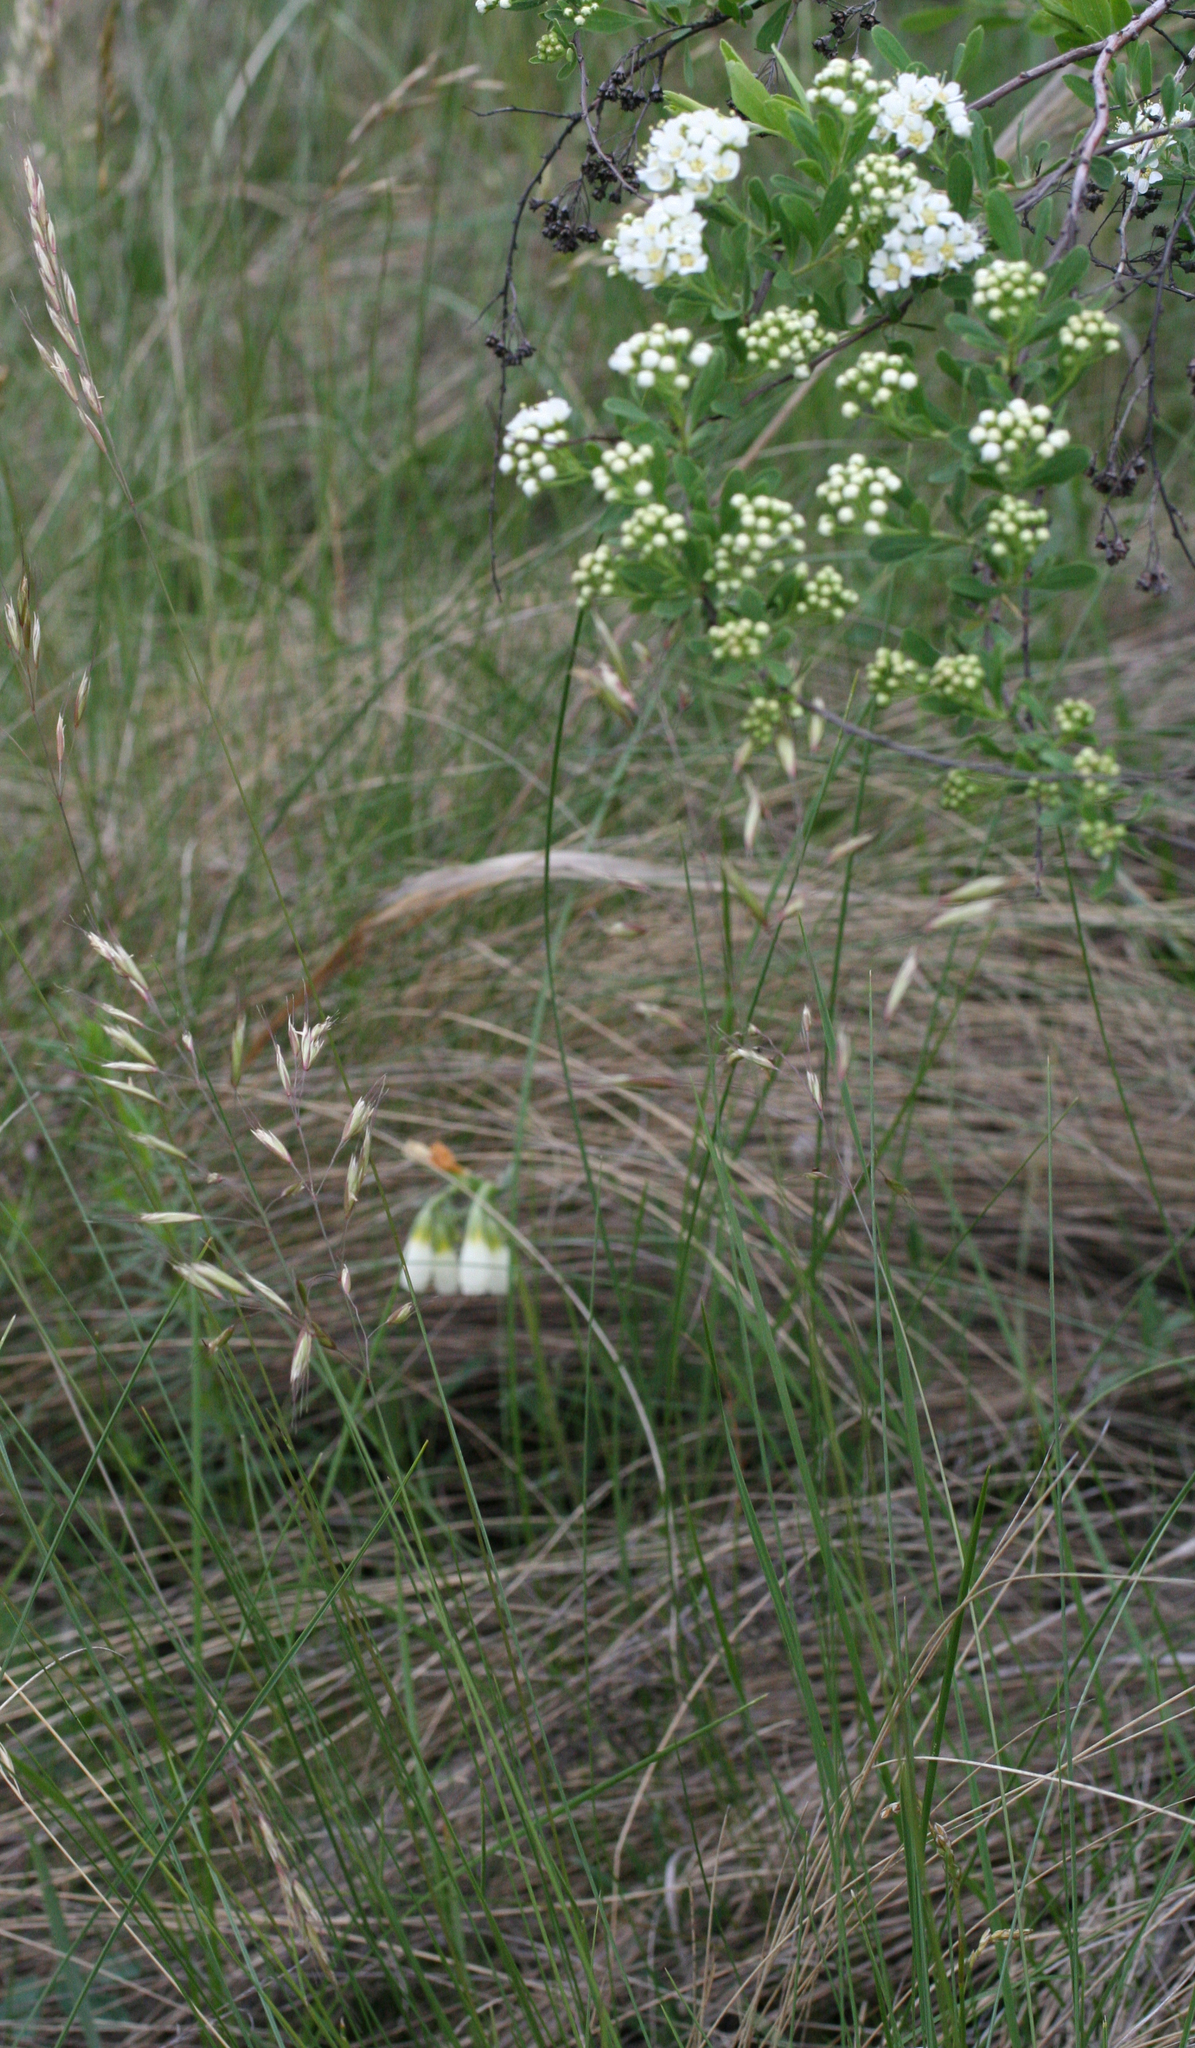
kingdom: Plantae
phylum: Tracheophyta
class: Liliopsida
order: Poales
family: Poaceae
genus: Helictotrichon
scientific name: Helictotrichon desertorum
